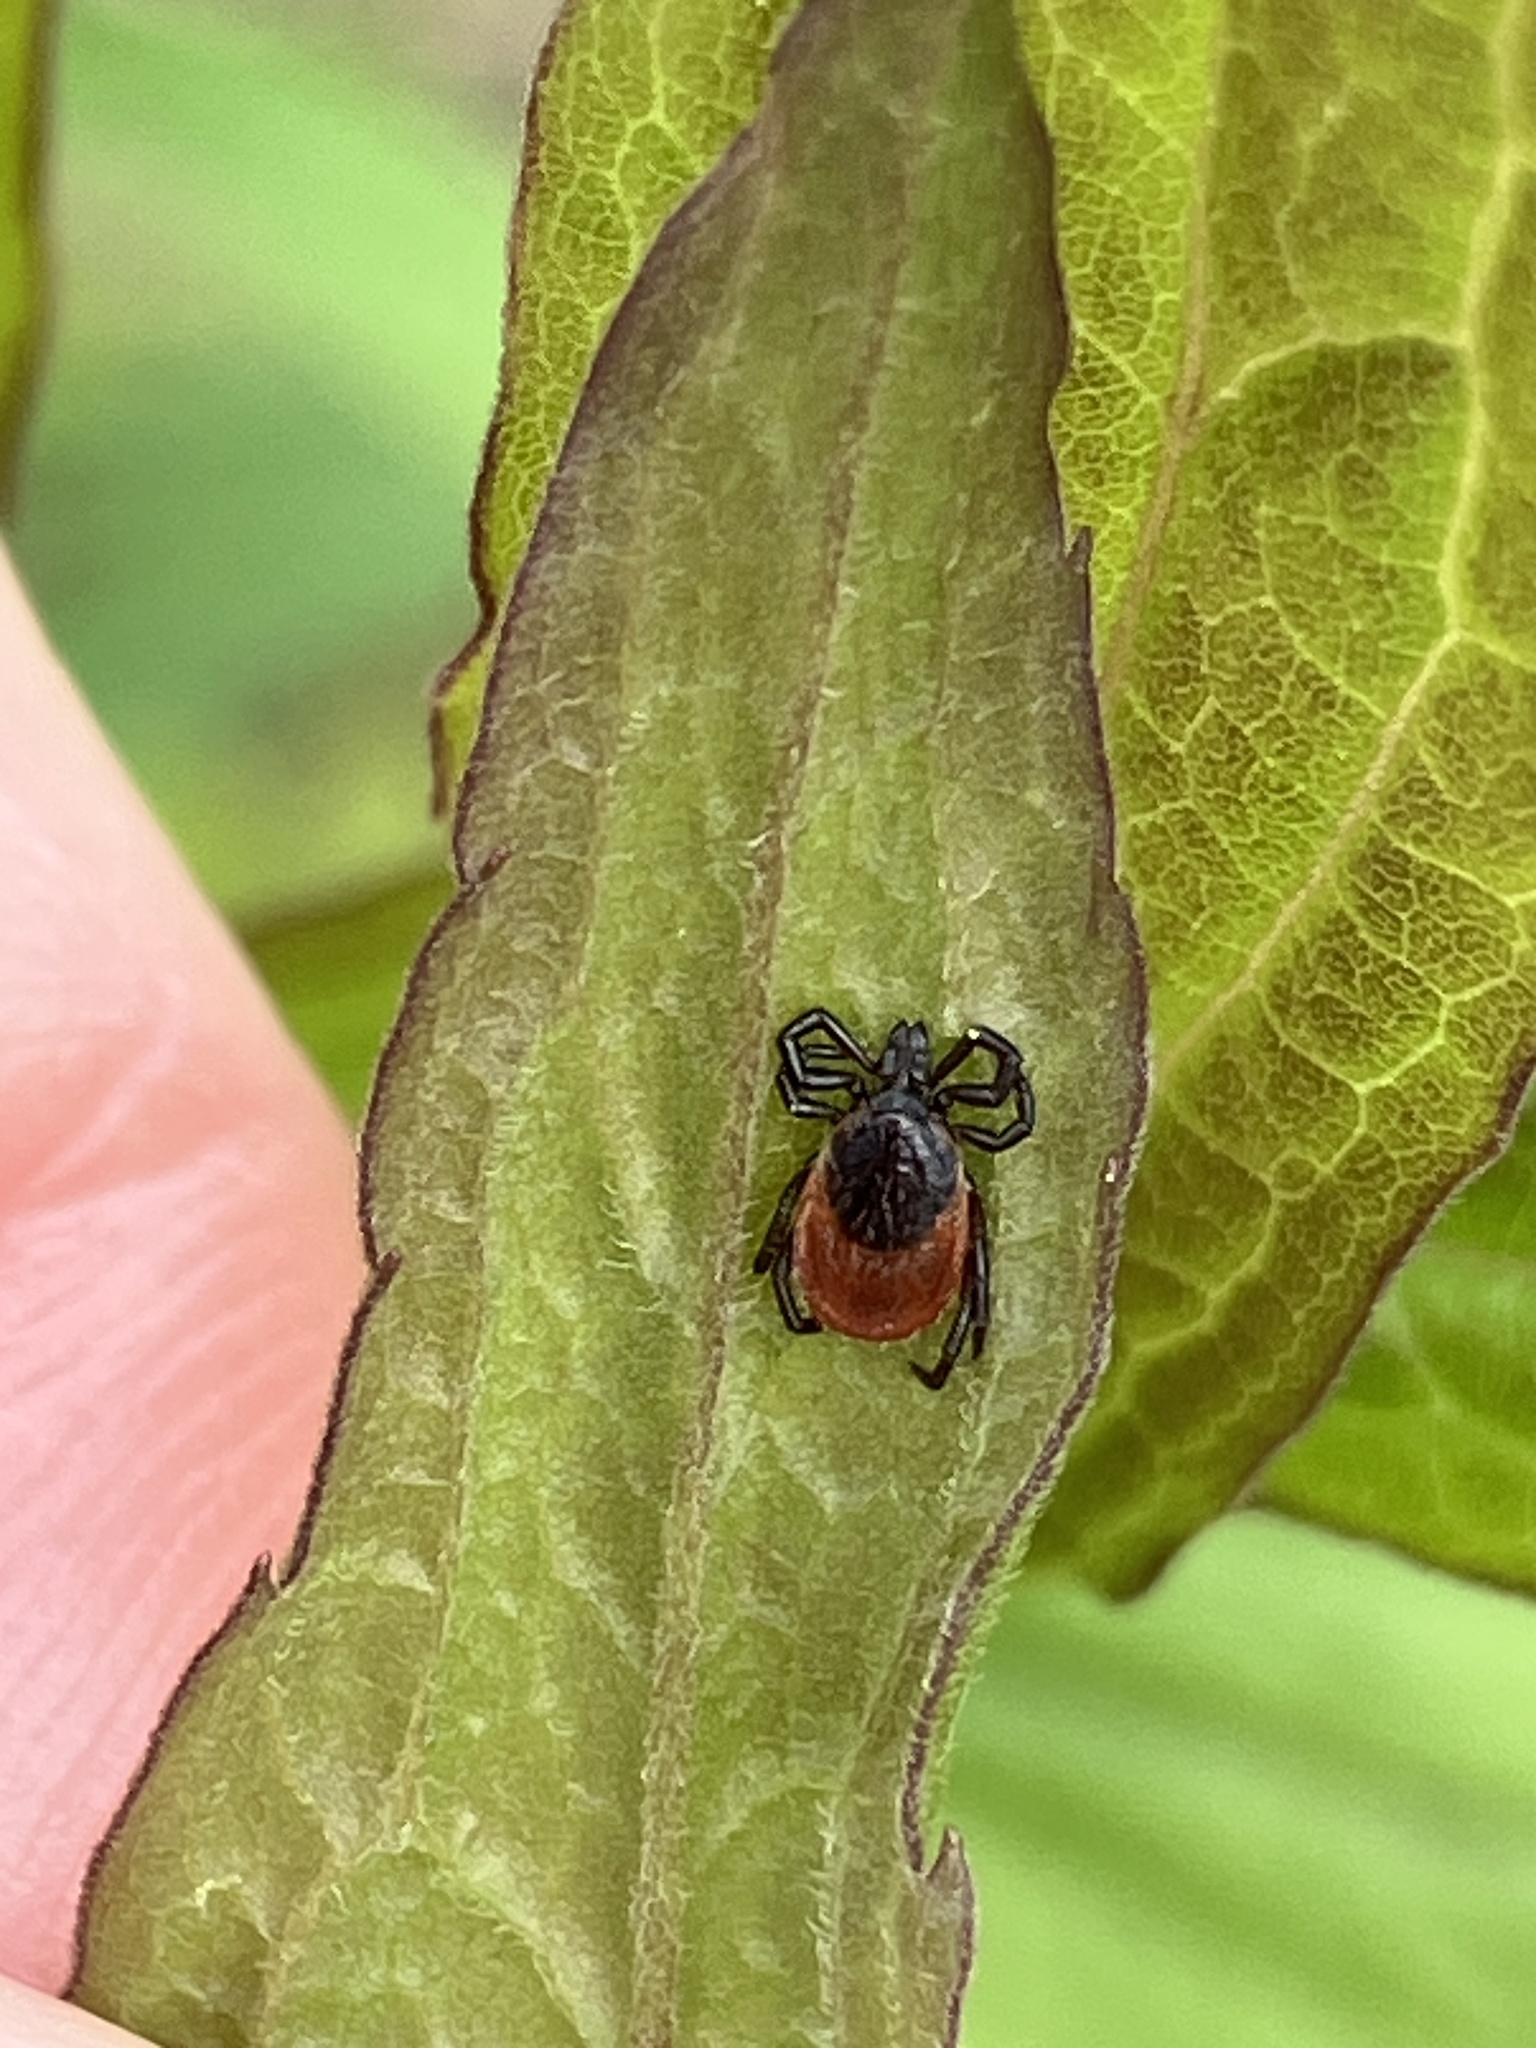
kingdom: Animalia
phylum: Arthropoda
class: Arachnida
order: Ixodida
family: Ixodidae
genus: Ixodes
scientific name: Ixodes ricinus
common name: Castor bean tick
